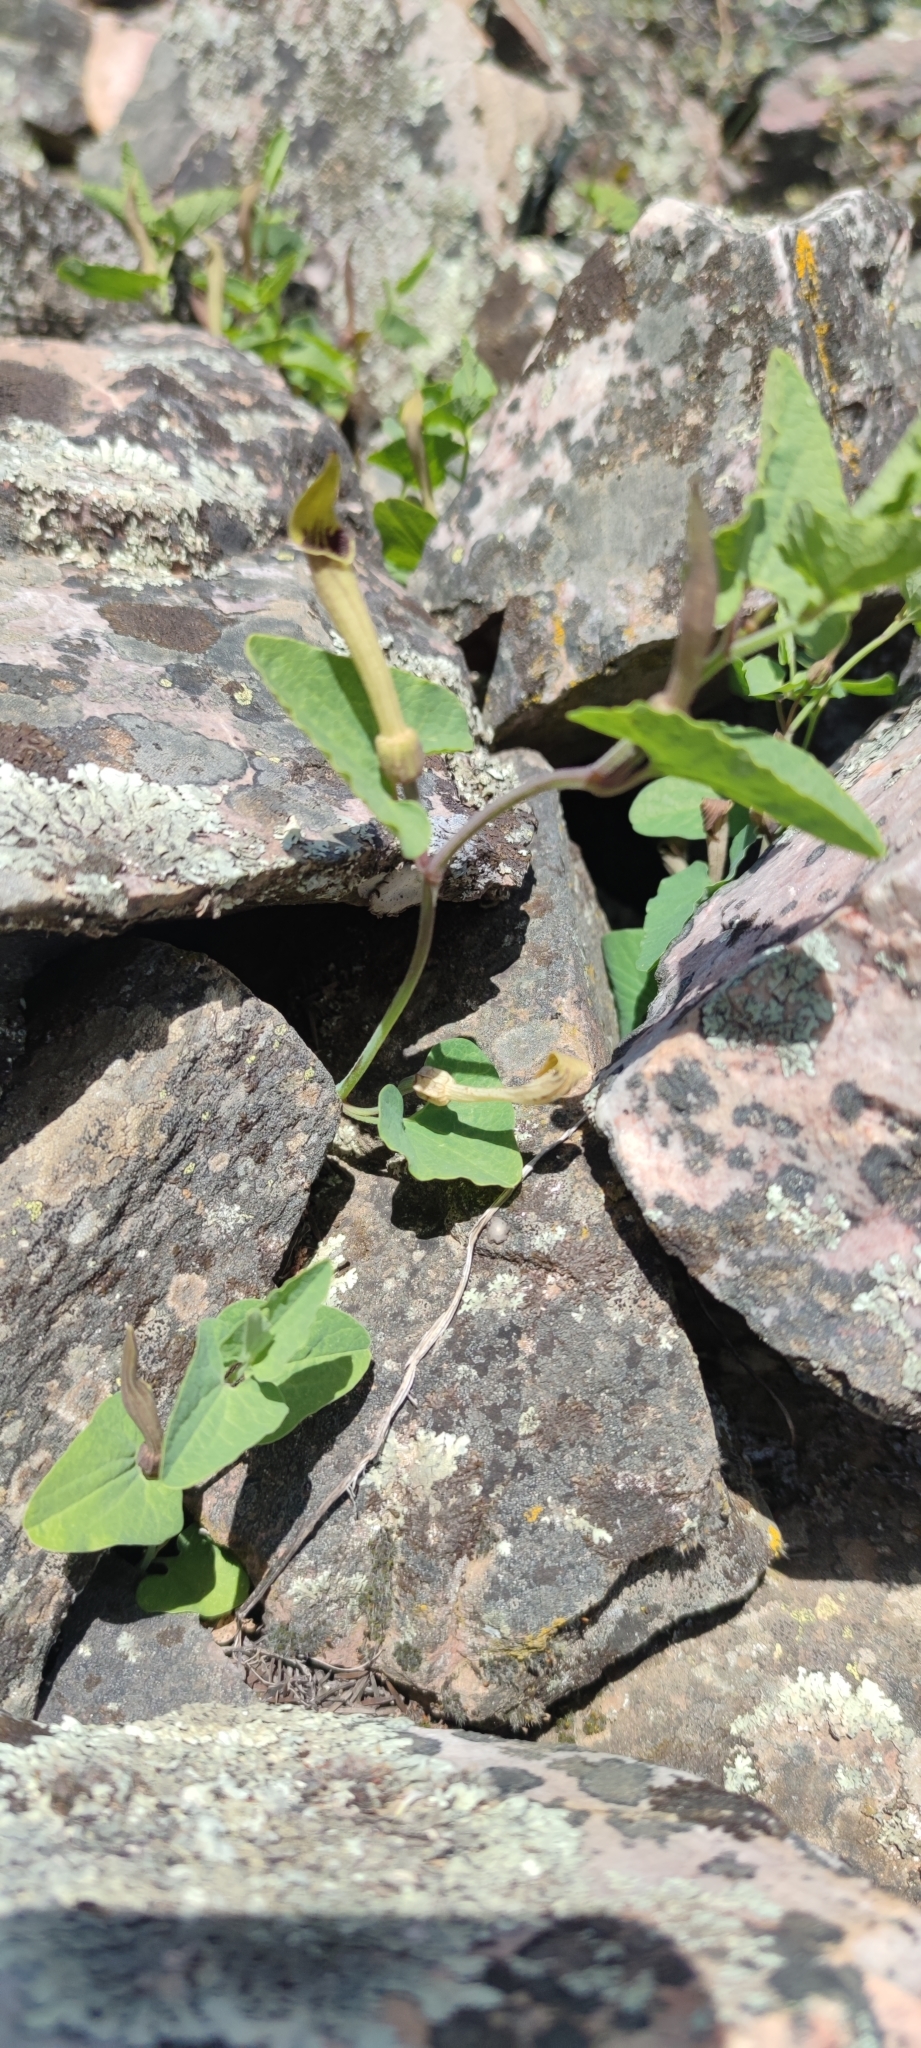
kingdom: Plantae
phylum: Tracheophyta
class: Magnoliopsida
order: Piperales
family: Aristolochiaceae
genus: Aristolochia
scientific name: Aristolochia paucinervis
